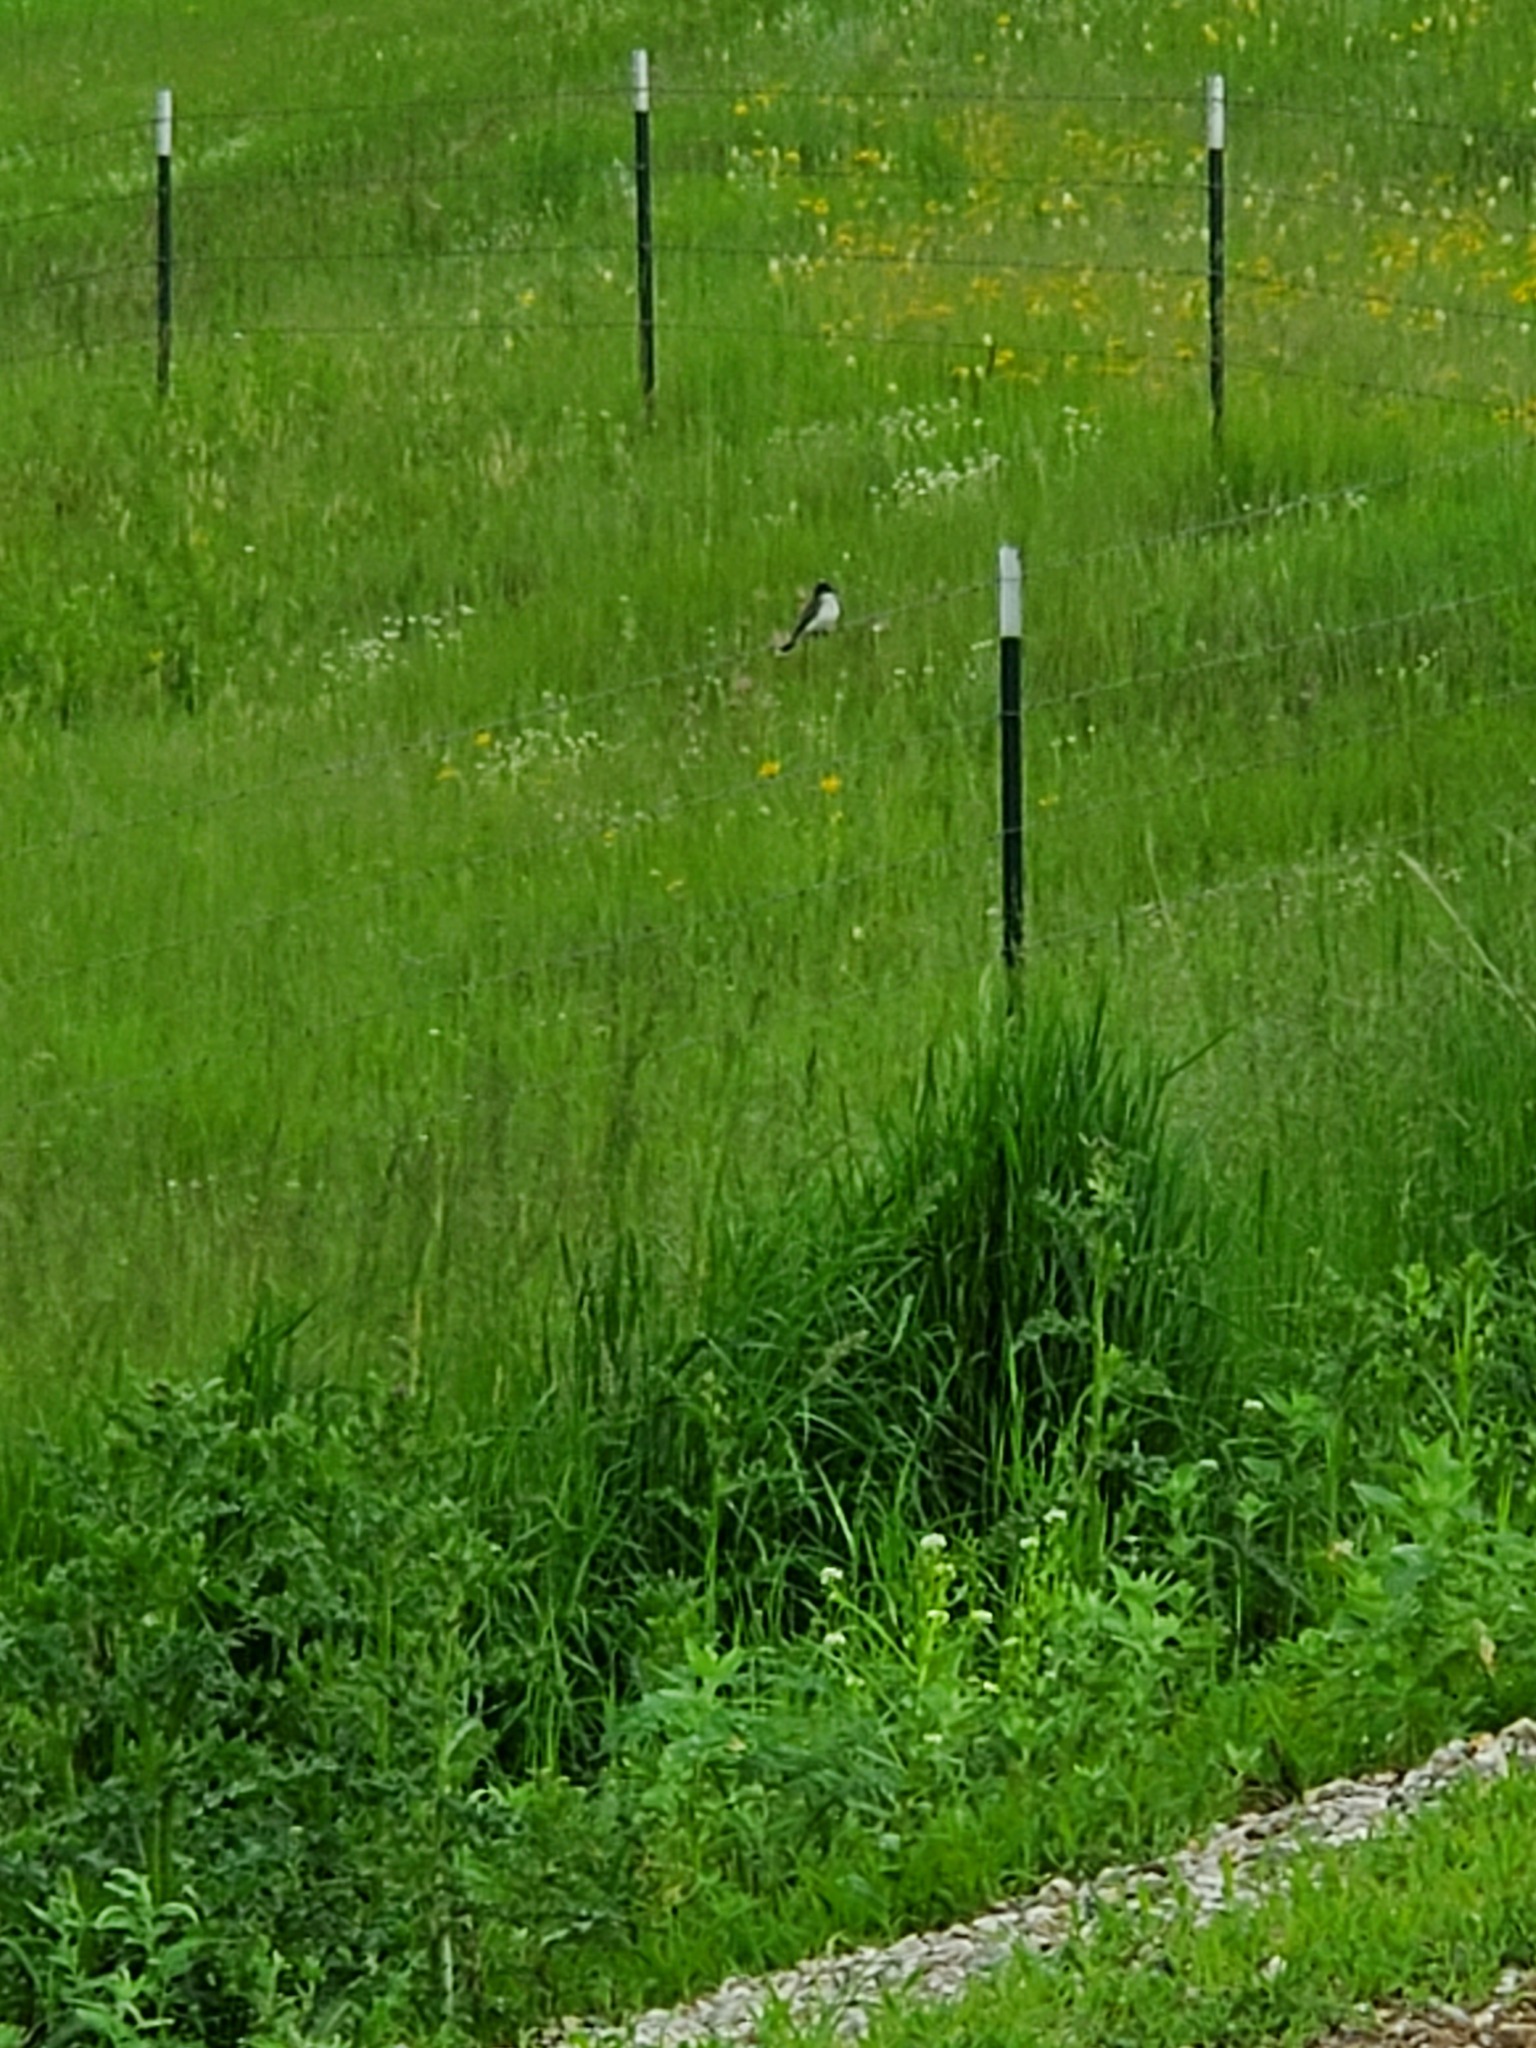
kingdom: Animalia
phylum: Chordata
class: Aves
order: Passeriformes
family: Tyrannidae
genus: Tyrannus
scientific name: Tyrannus tyrannus
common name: Eastern kingbird
